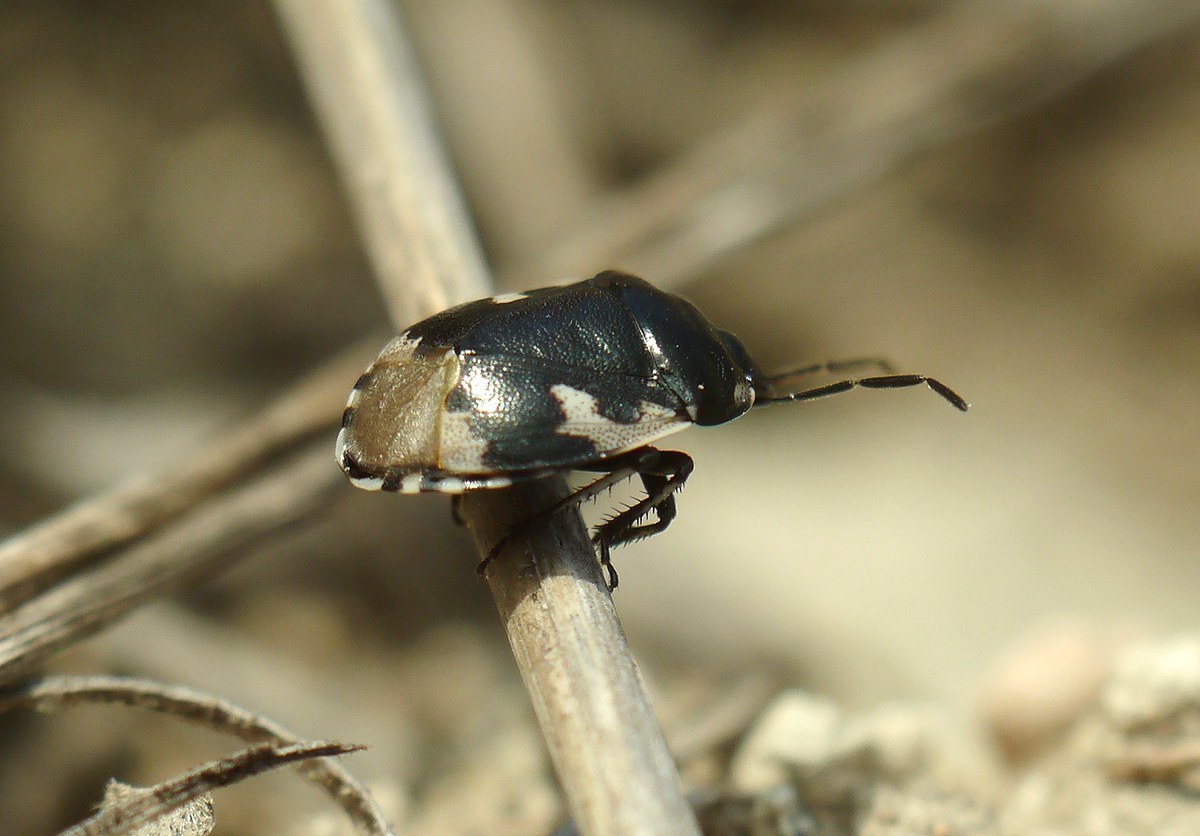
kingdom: Animalia
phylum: Arthropoda
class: Insecta
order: Hemiptera
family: Cydnidae
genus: Tritomegas
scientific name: Tritomegas bicolor
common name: Pied shieldbug
